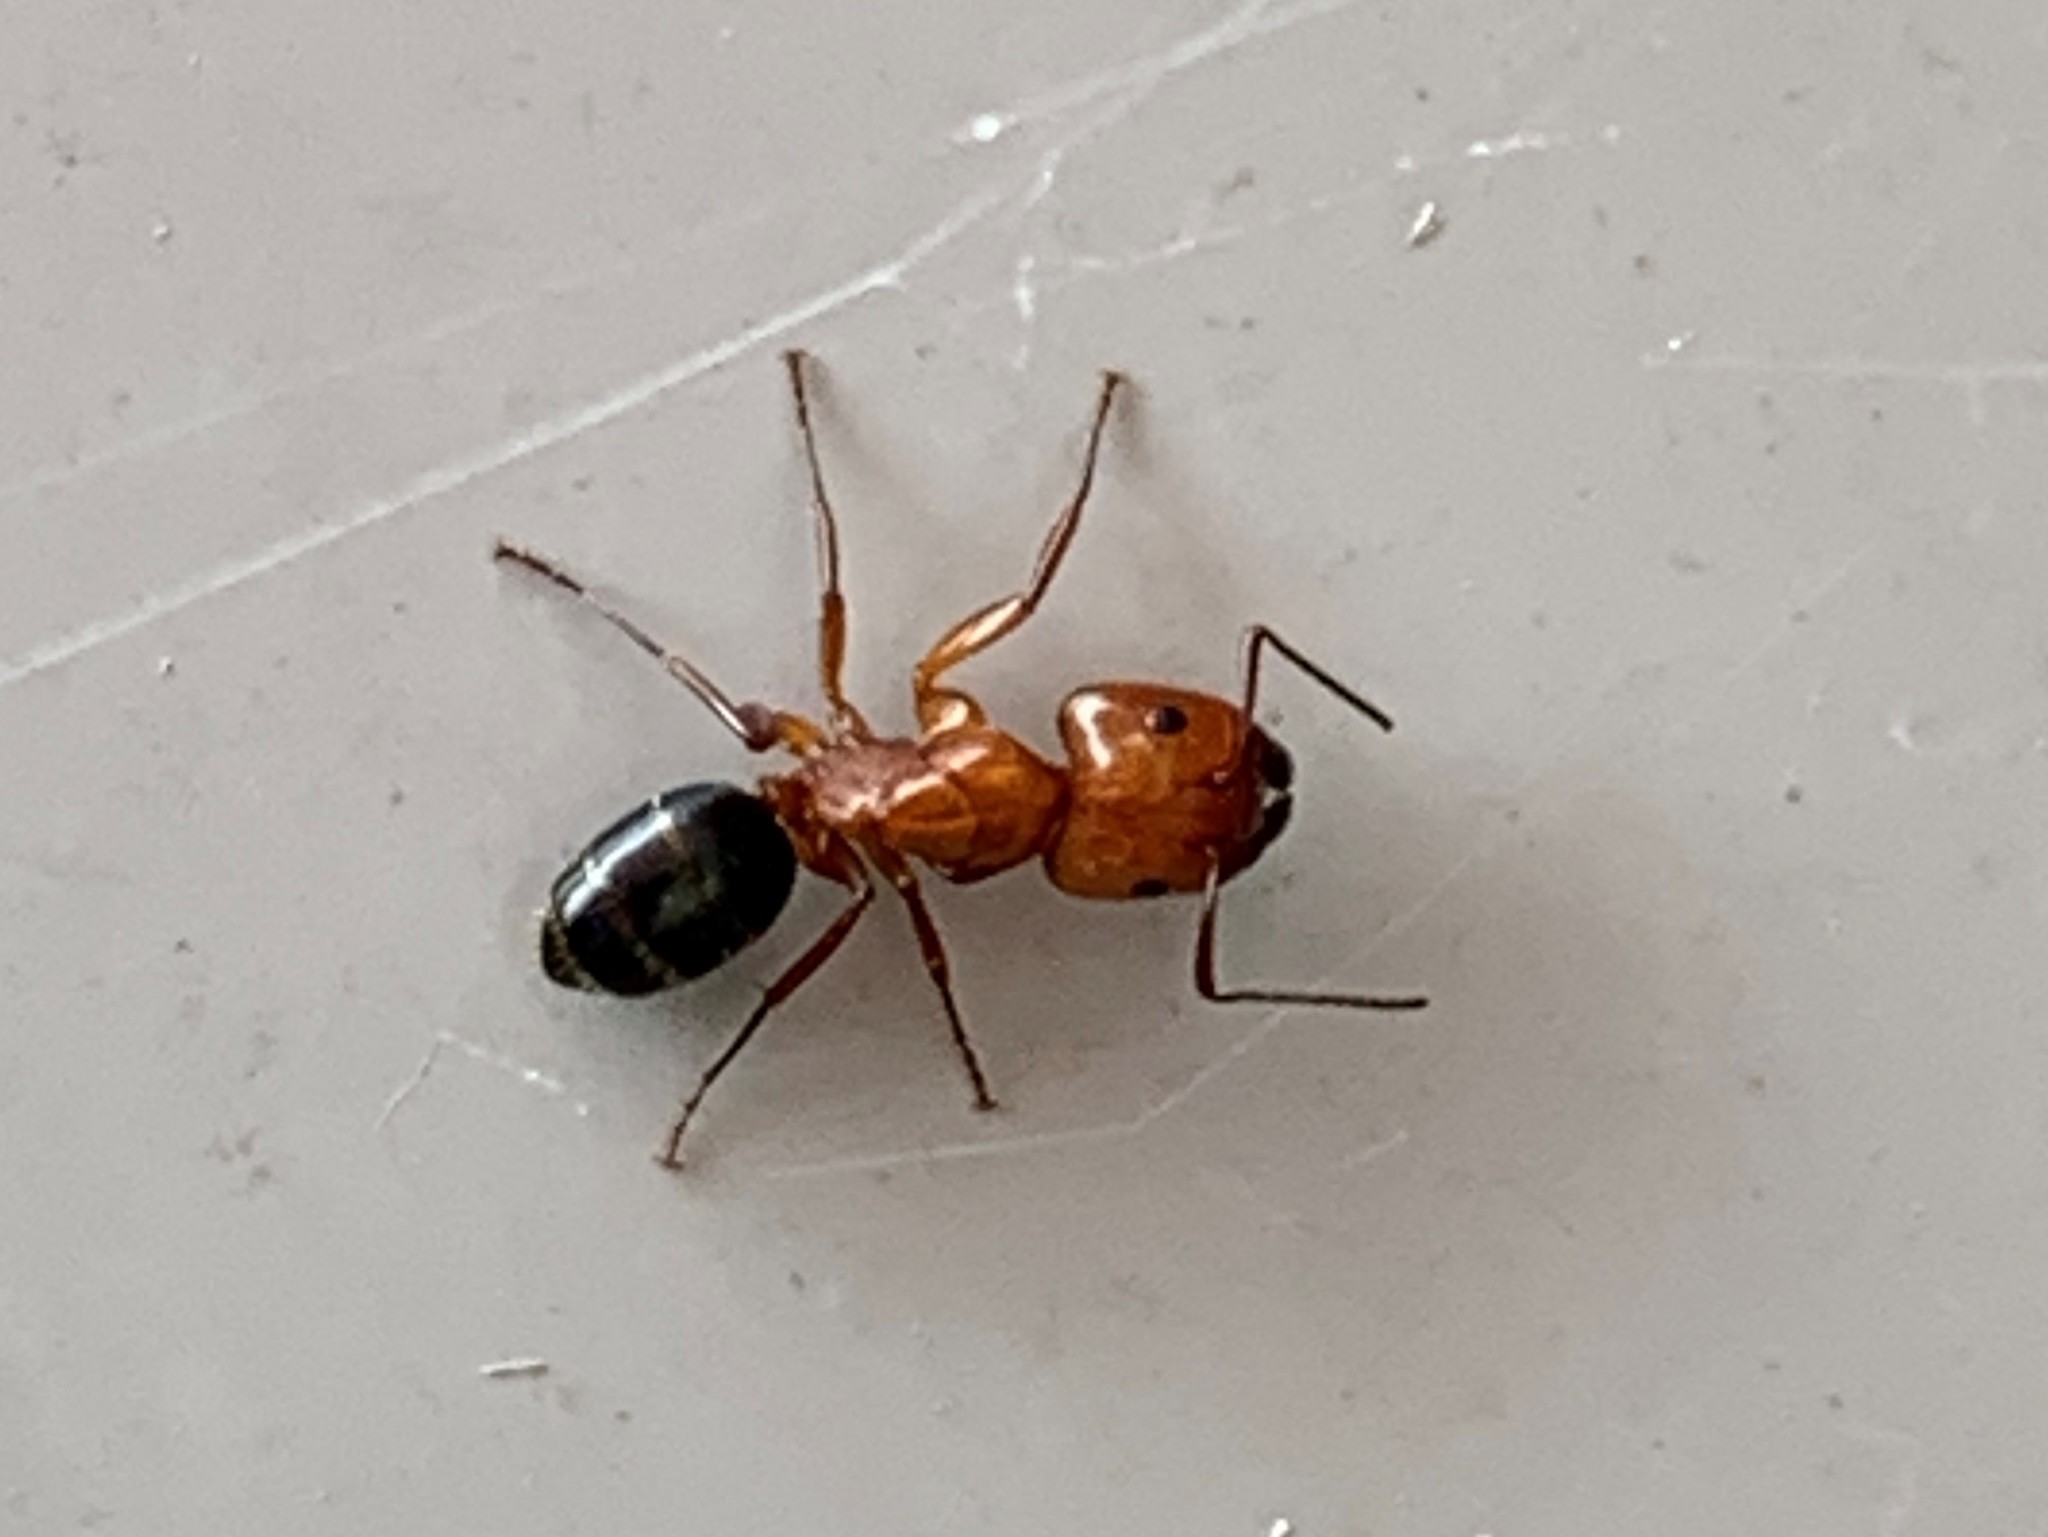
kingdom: Animalia
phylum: Arthropoda
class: Insecta
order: Hymenoptera
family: Formicidae
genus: Camponotus
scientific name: Camponotus decipiens
